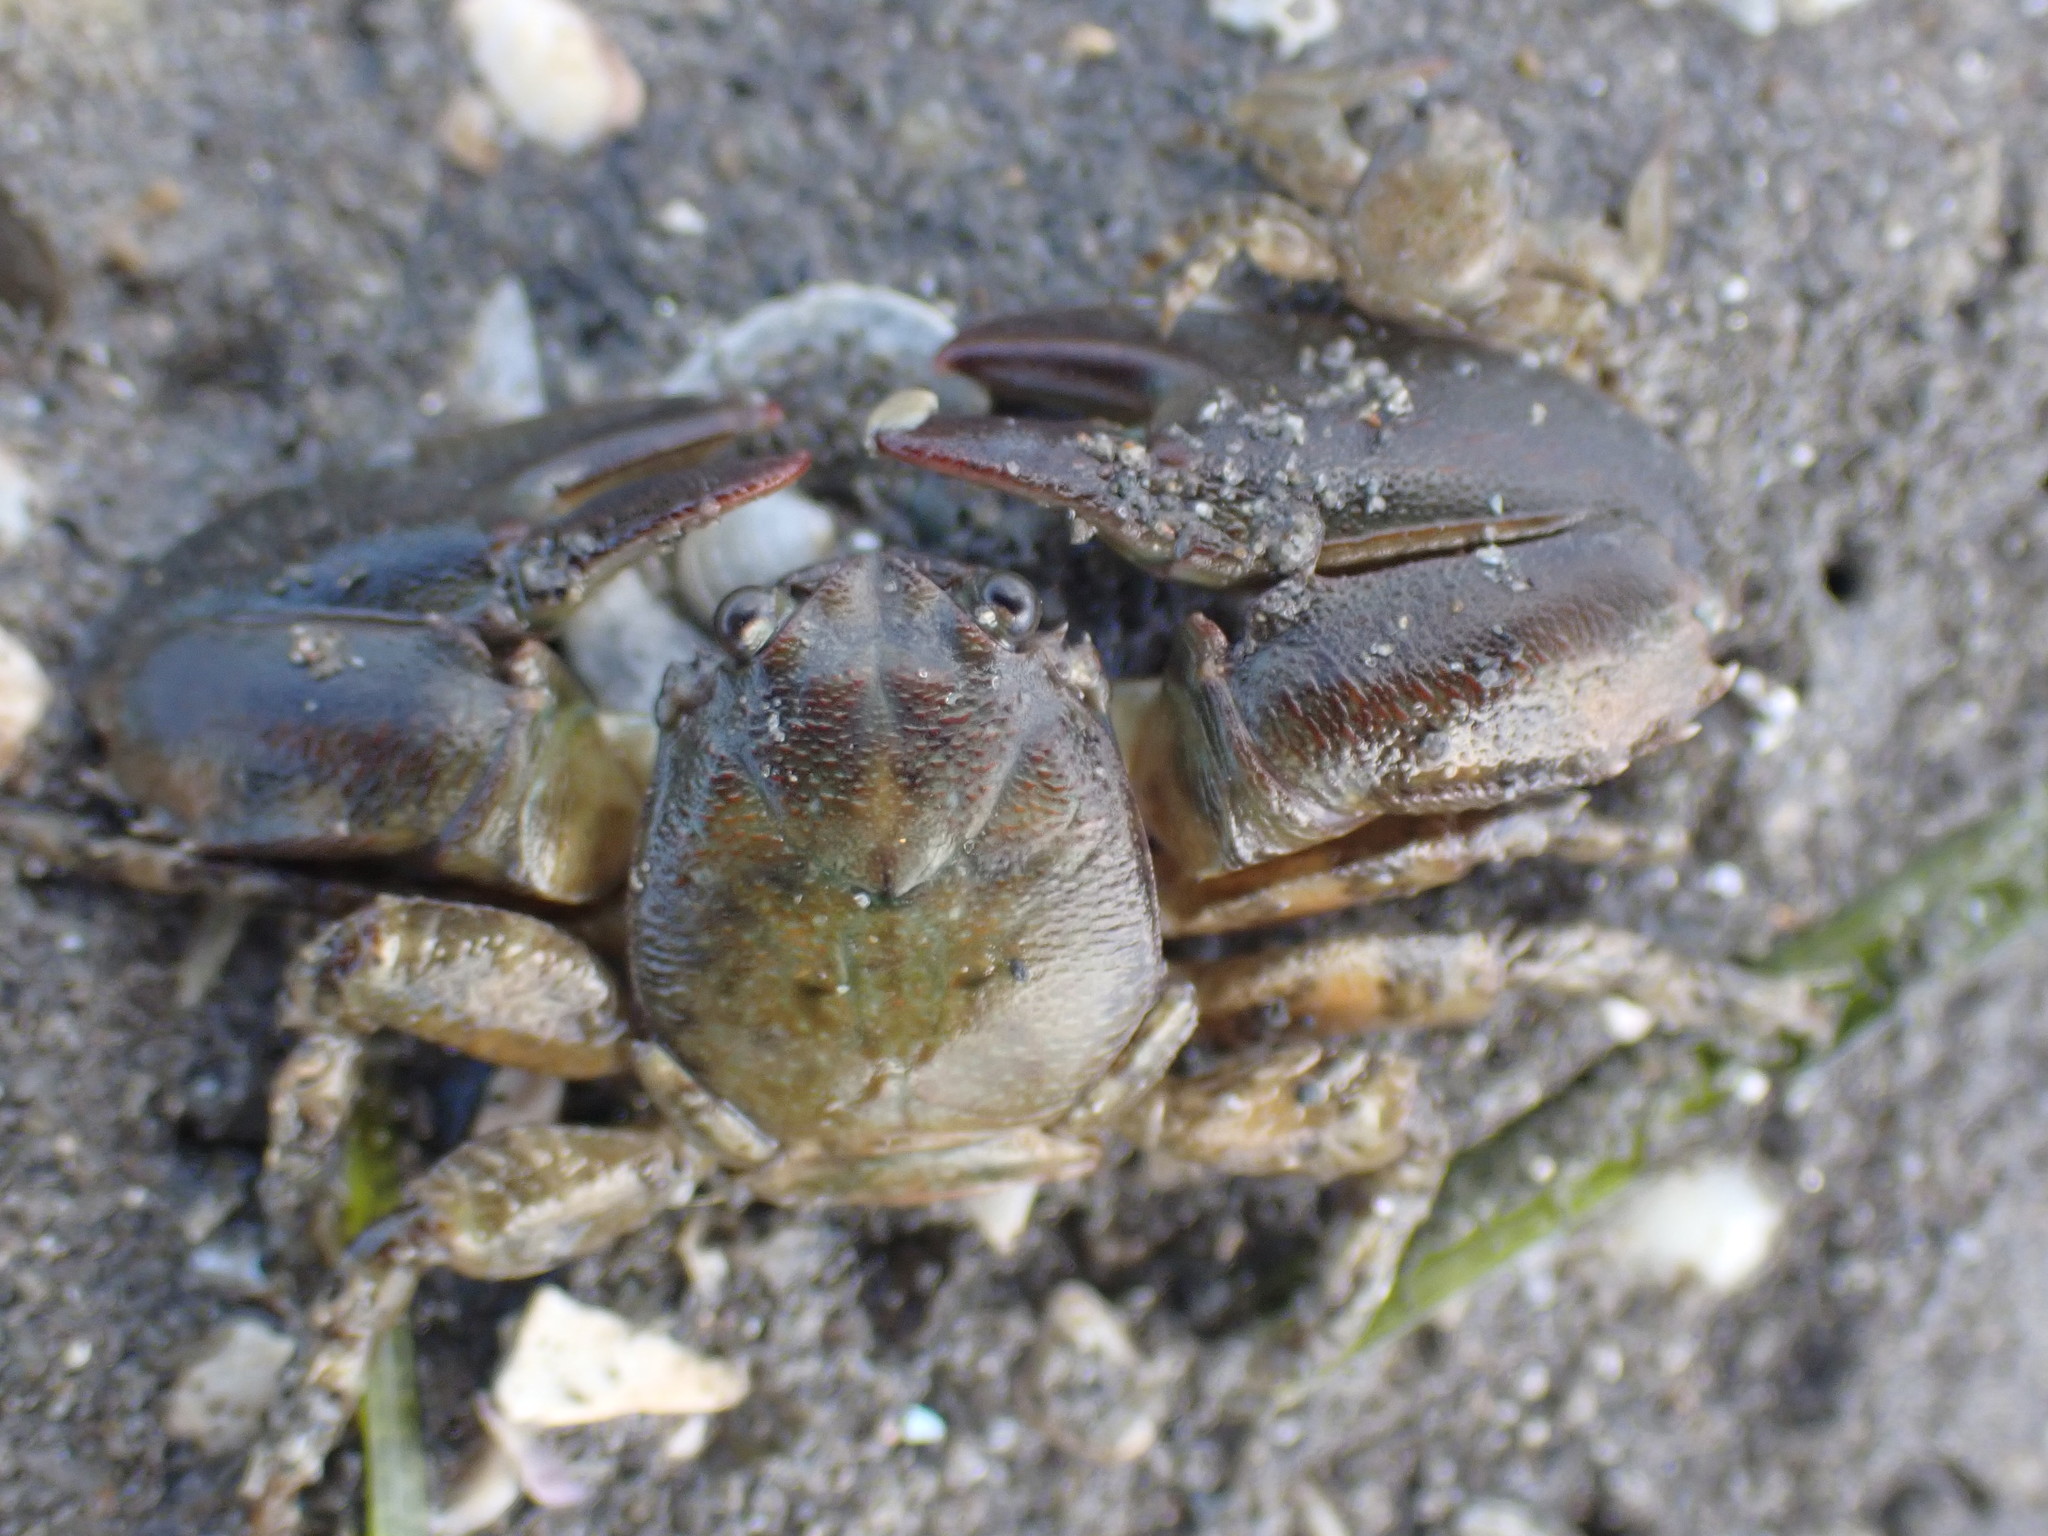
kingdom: Animalia
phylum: Arthropoda
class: Malacostraca
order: Decapoda
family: Porcellanidae
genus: Petrolisthes
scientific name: Petrolisthes elongatus
